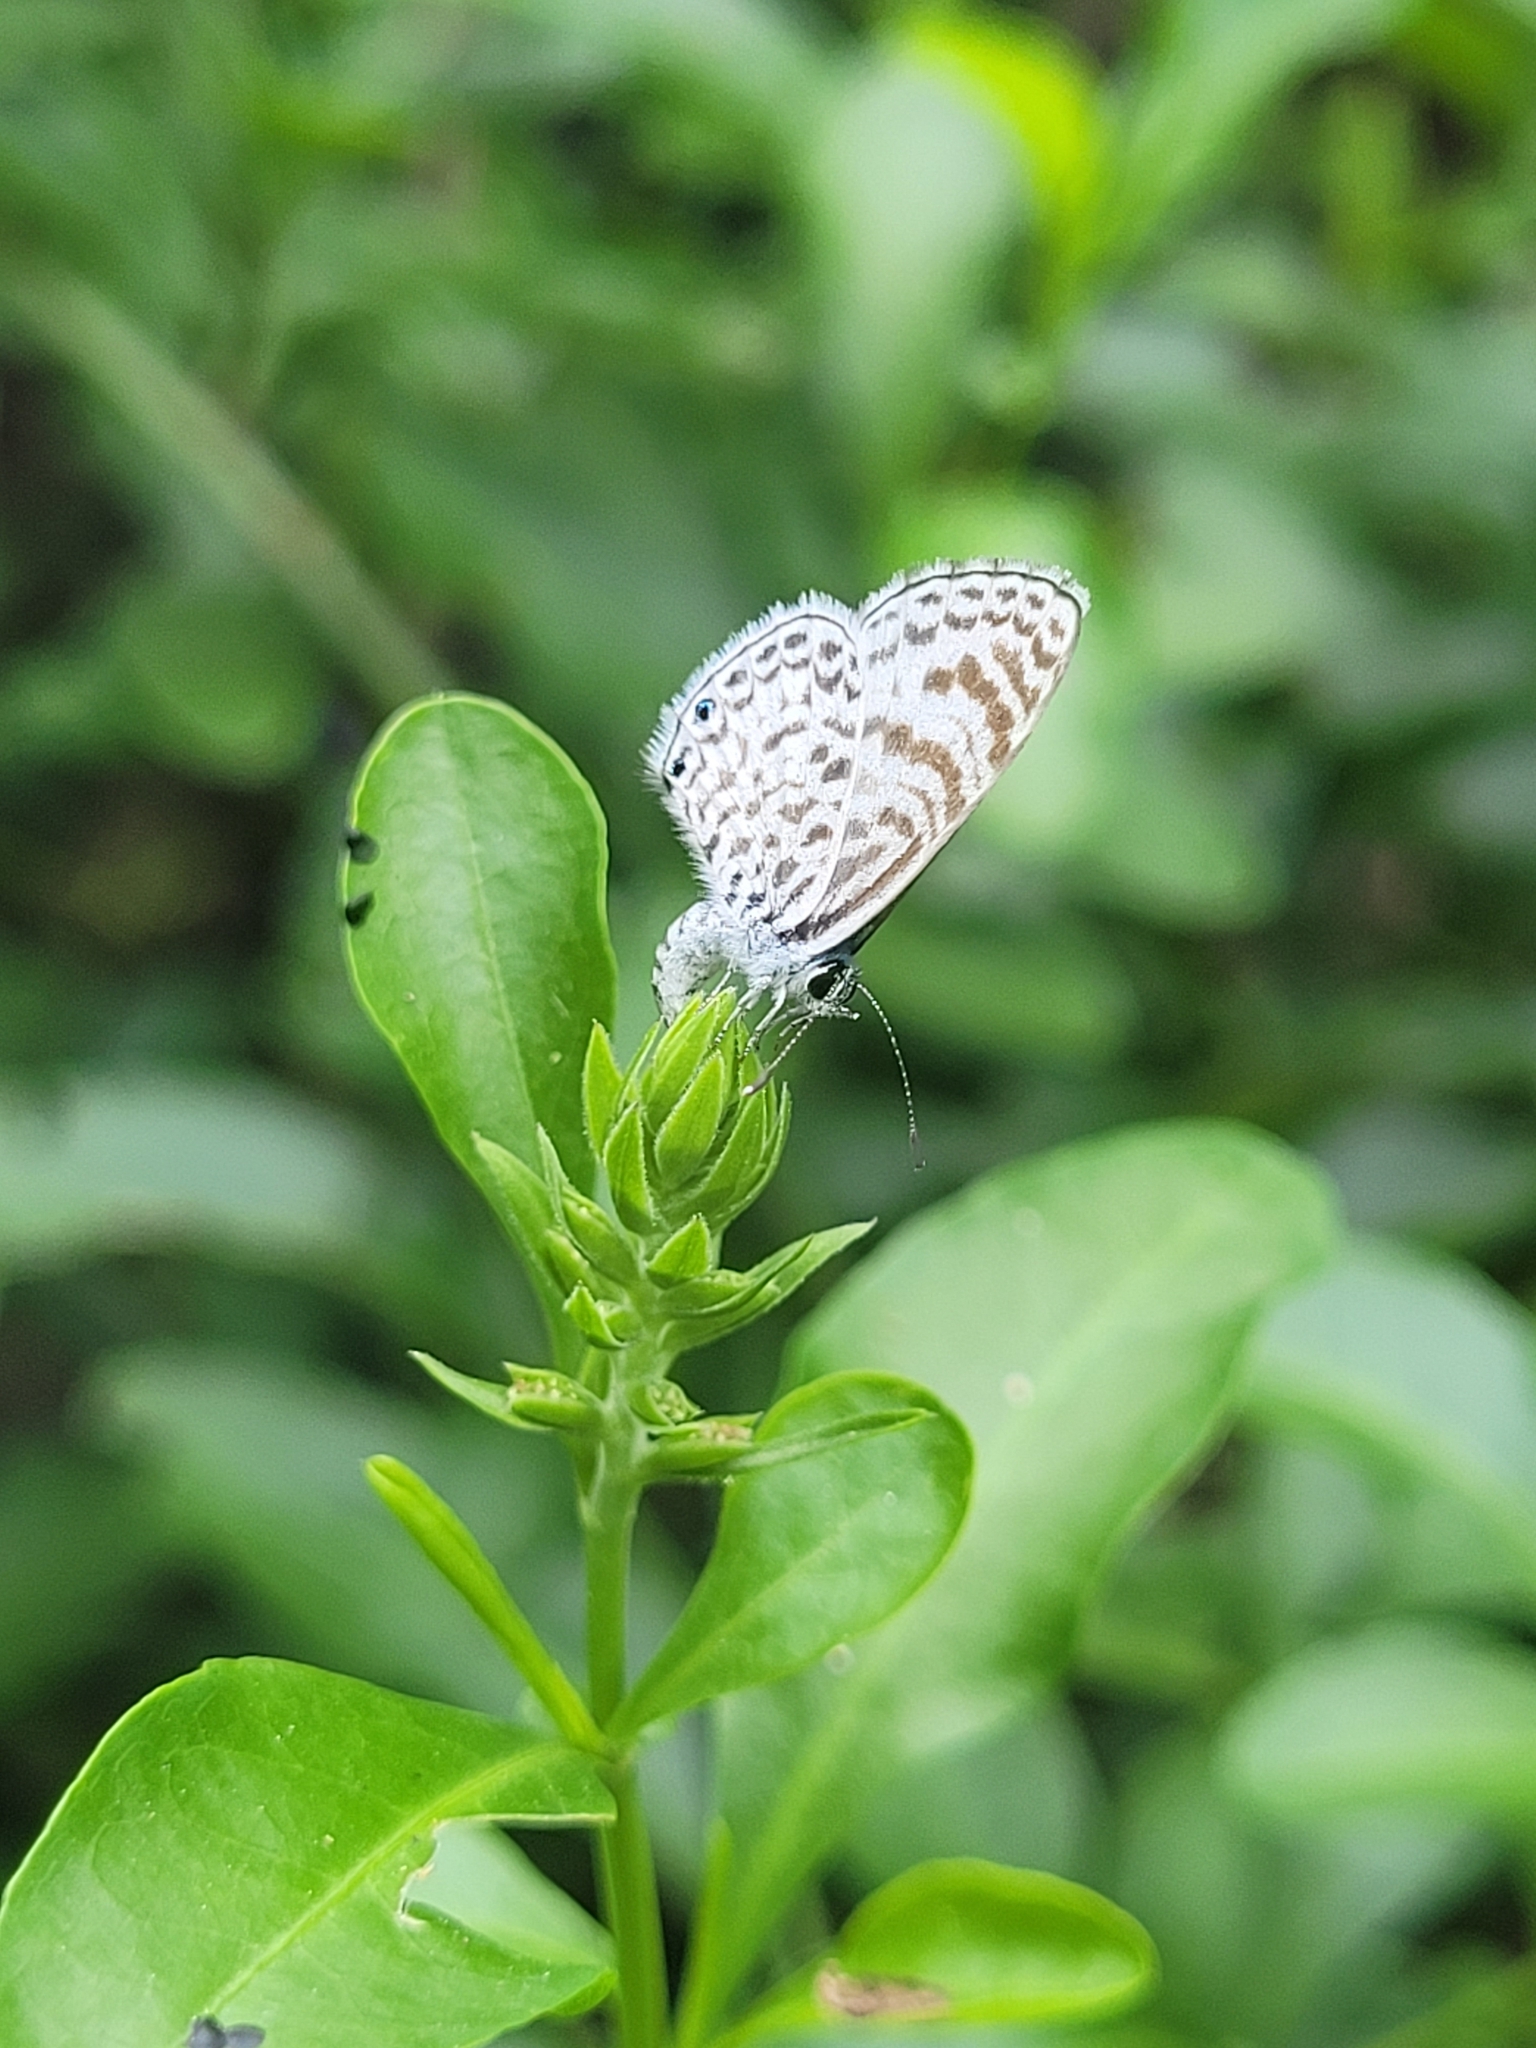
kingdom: Animalia
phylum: Arthropoda
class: Insecta
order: Lepidoptera
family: Lycaenidae
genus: Leptotes
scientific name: Leptotes cassius
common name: Cassius blue
